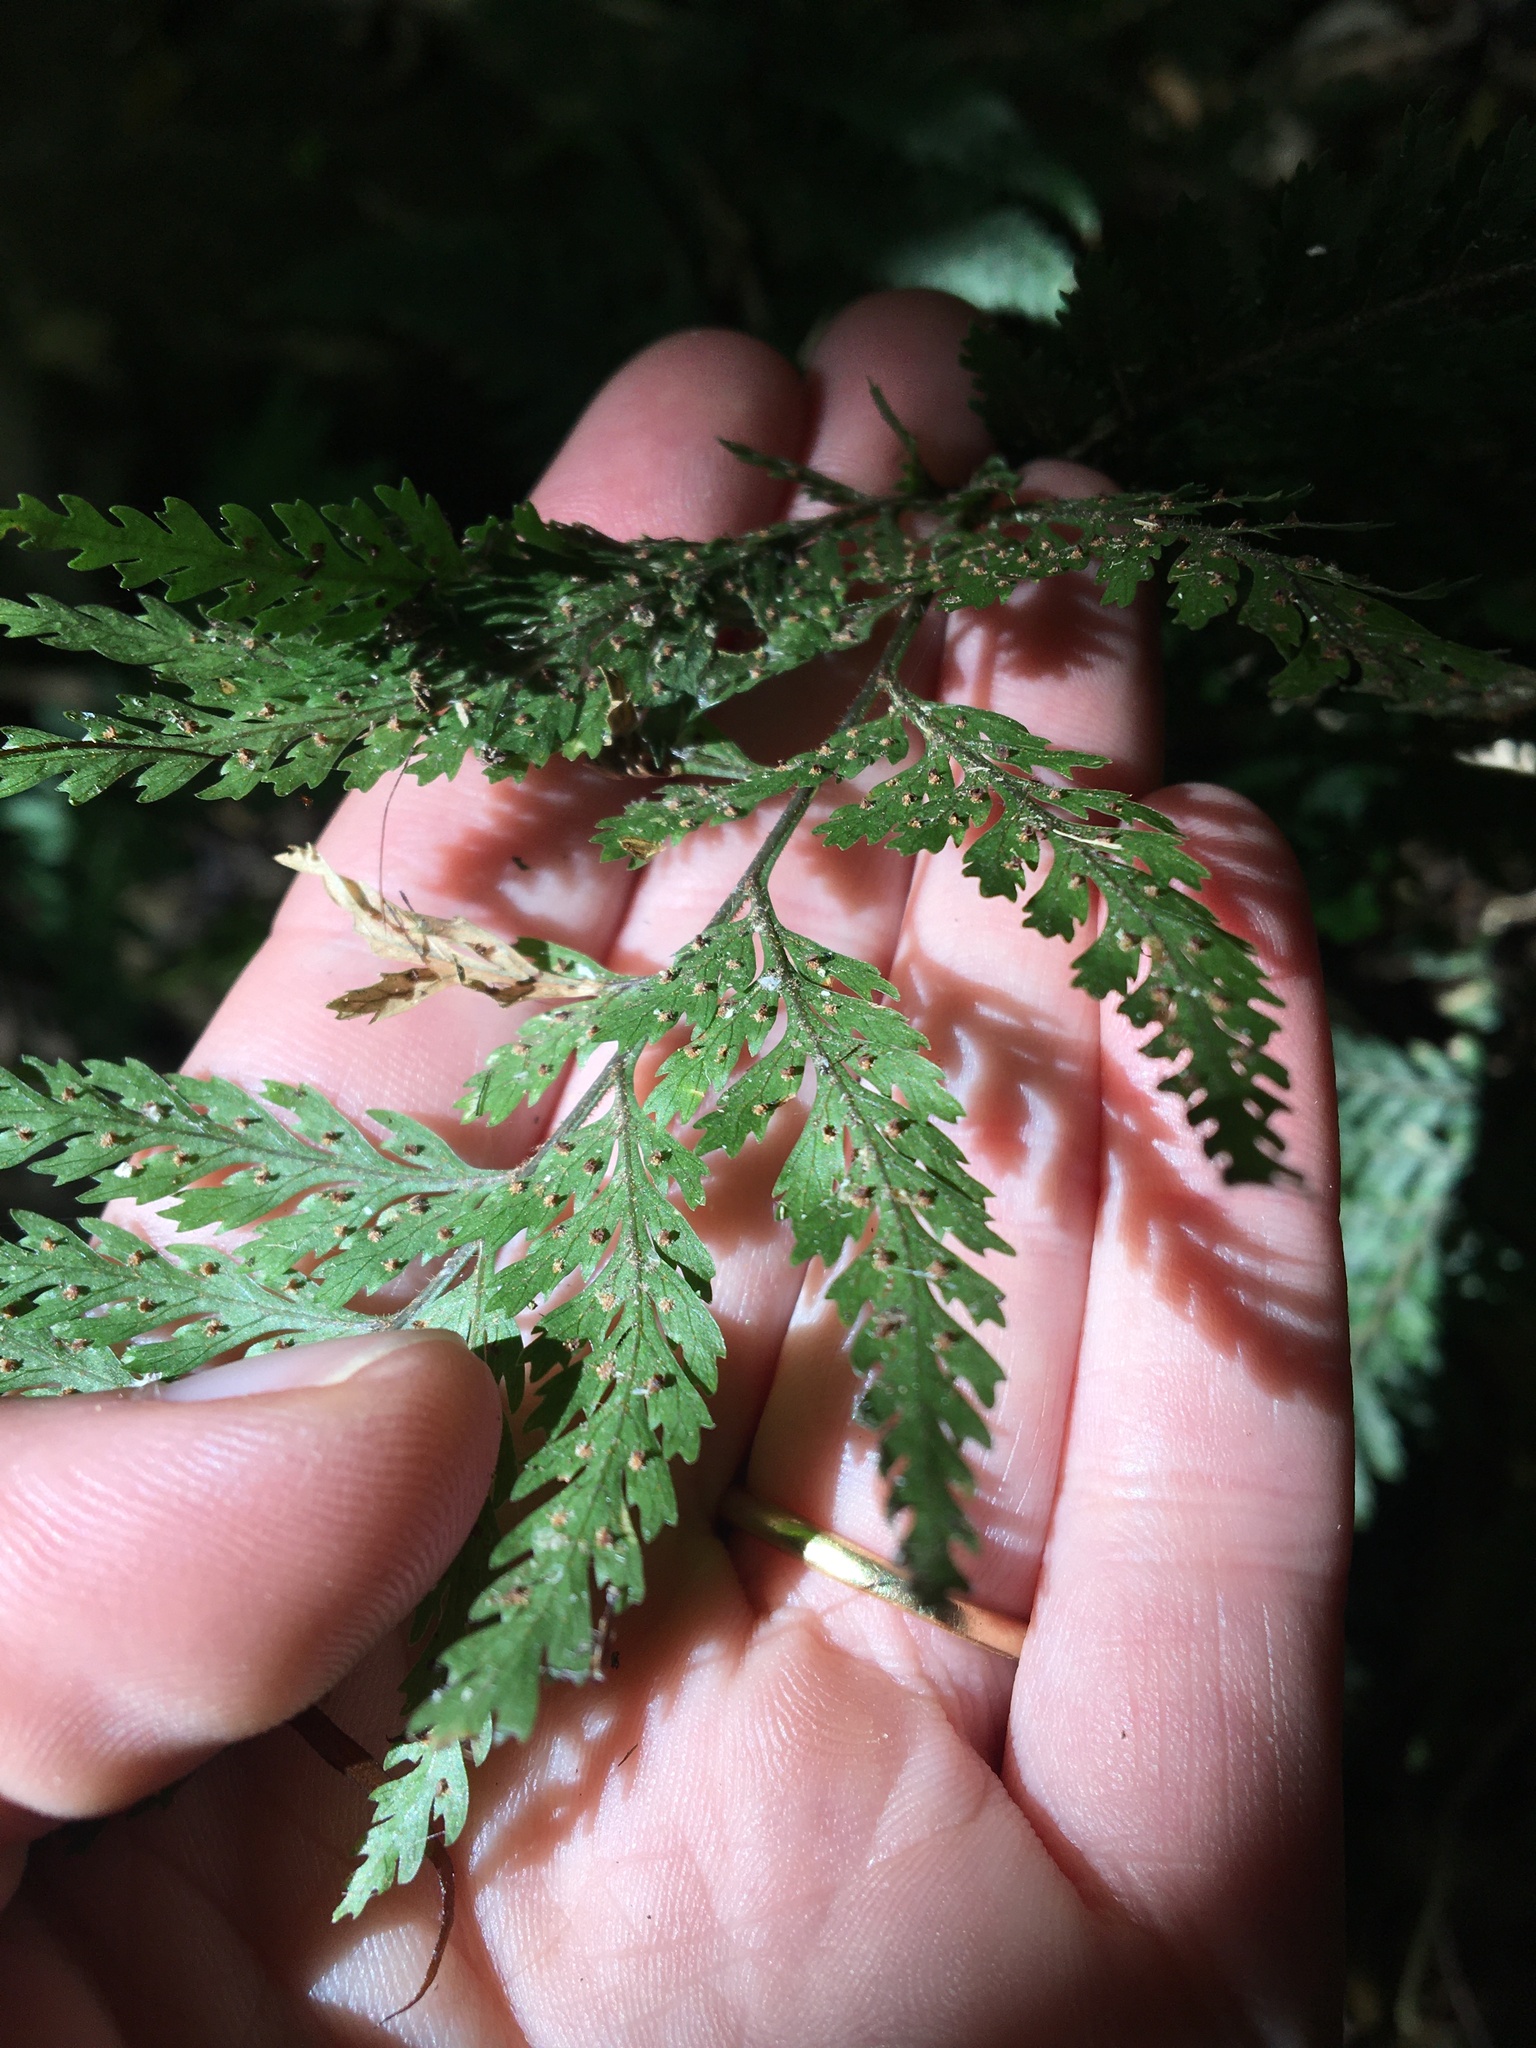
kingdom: Plantae
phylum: Tracheophyta
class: Polypodiopsida
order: Polypodiales
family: Dryopteridaceae
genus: Parapolystichum
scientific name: Parapolystichum glabellum
